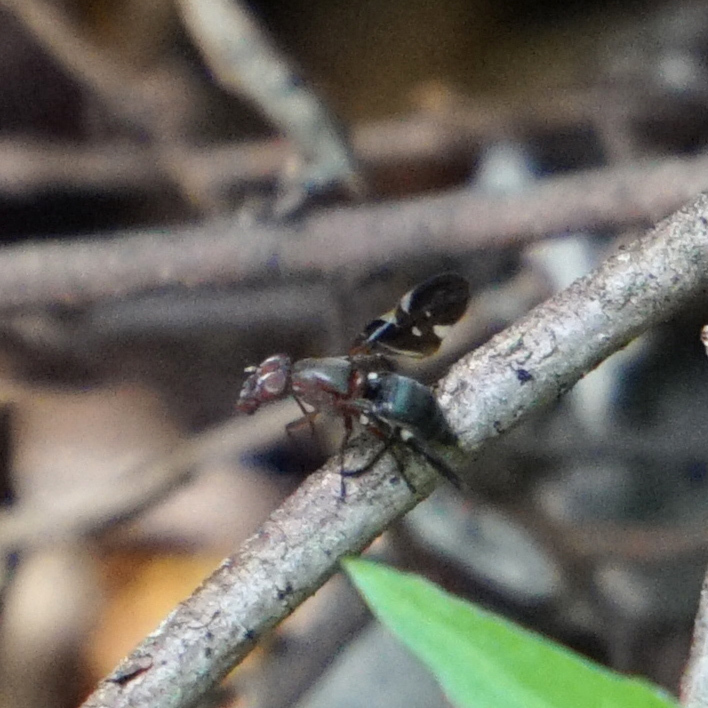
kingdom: Animalia
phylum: Arthropoda
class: Insecta
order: Diptera
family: Ulidiidae
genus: Delphinia
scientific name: Delphinia picta
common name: Common picture-winged fly
